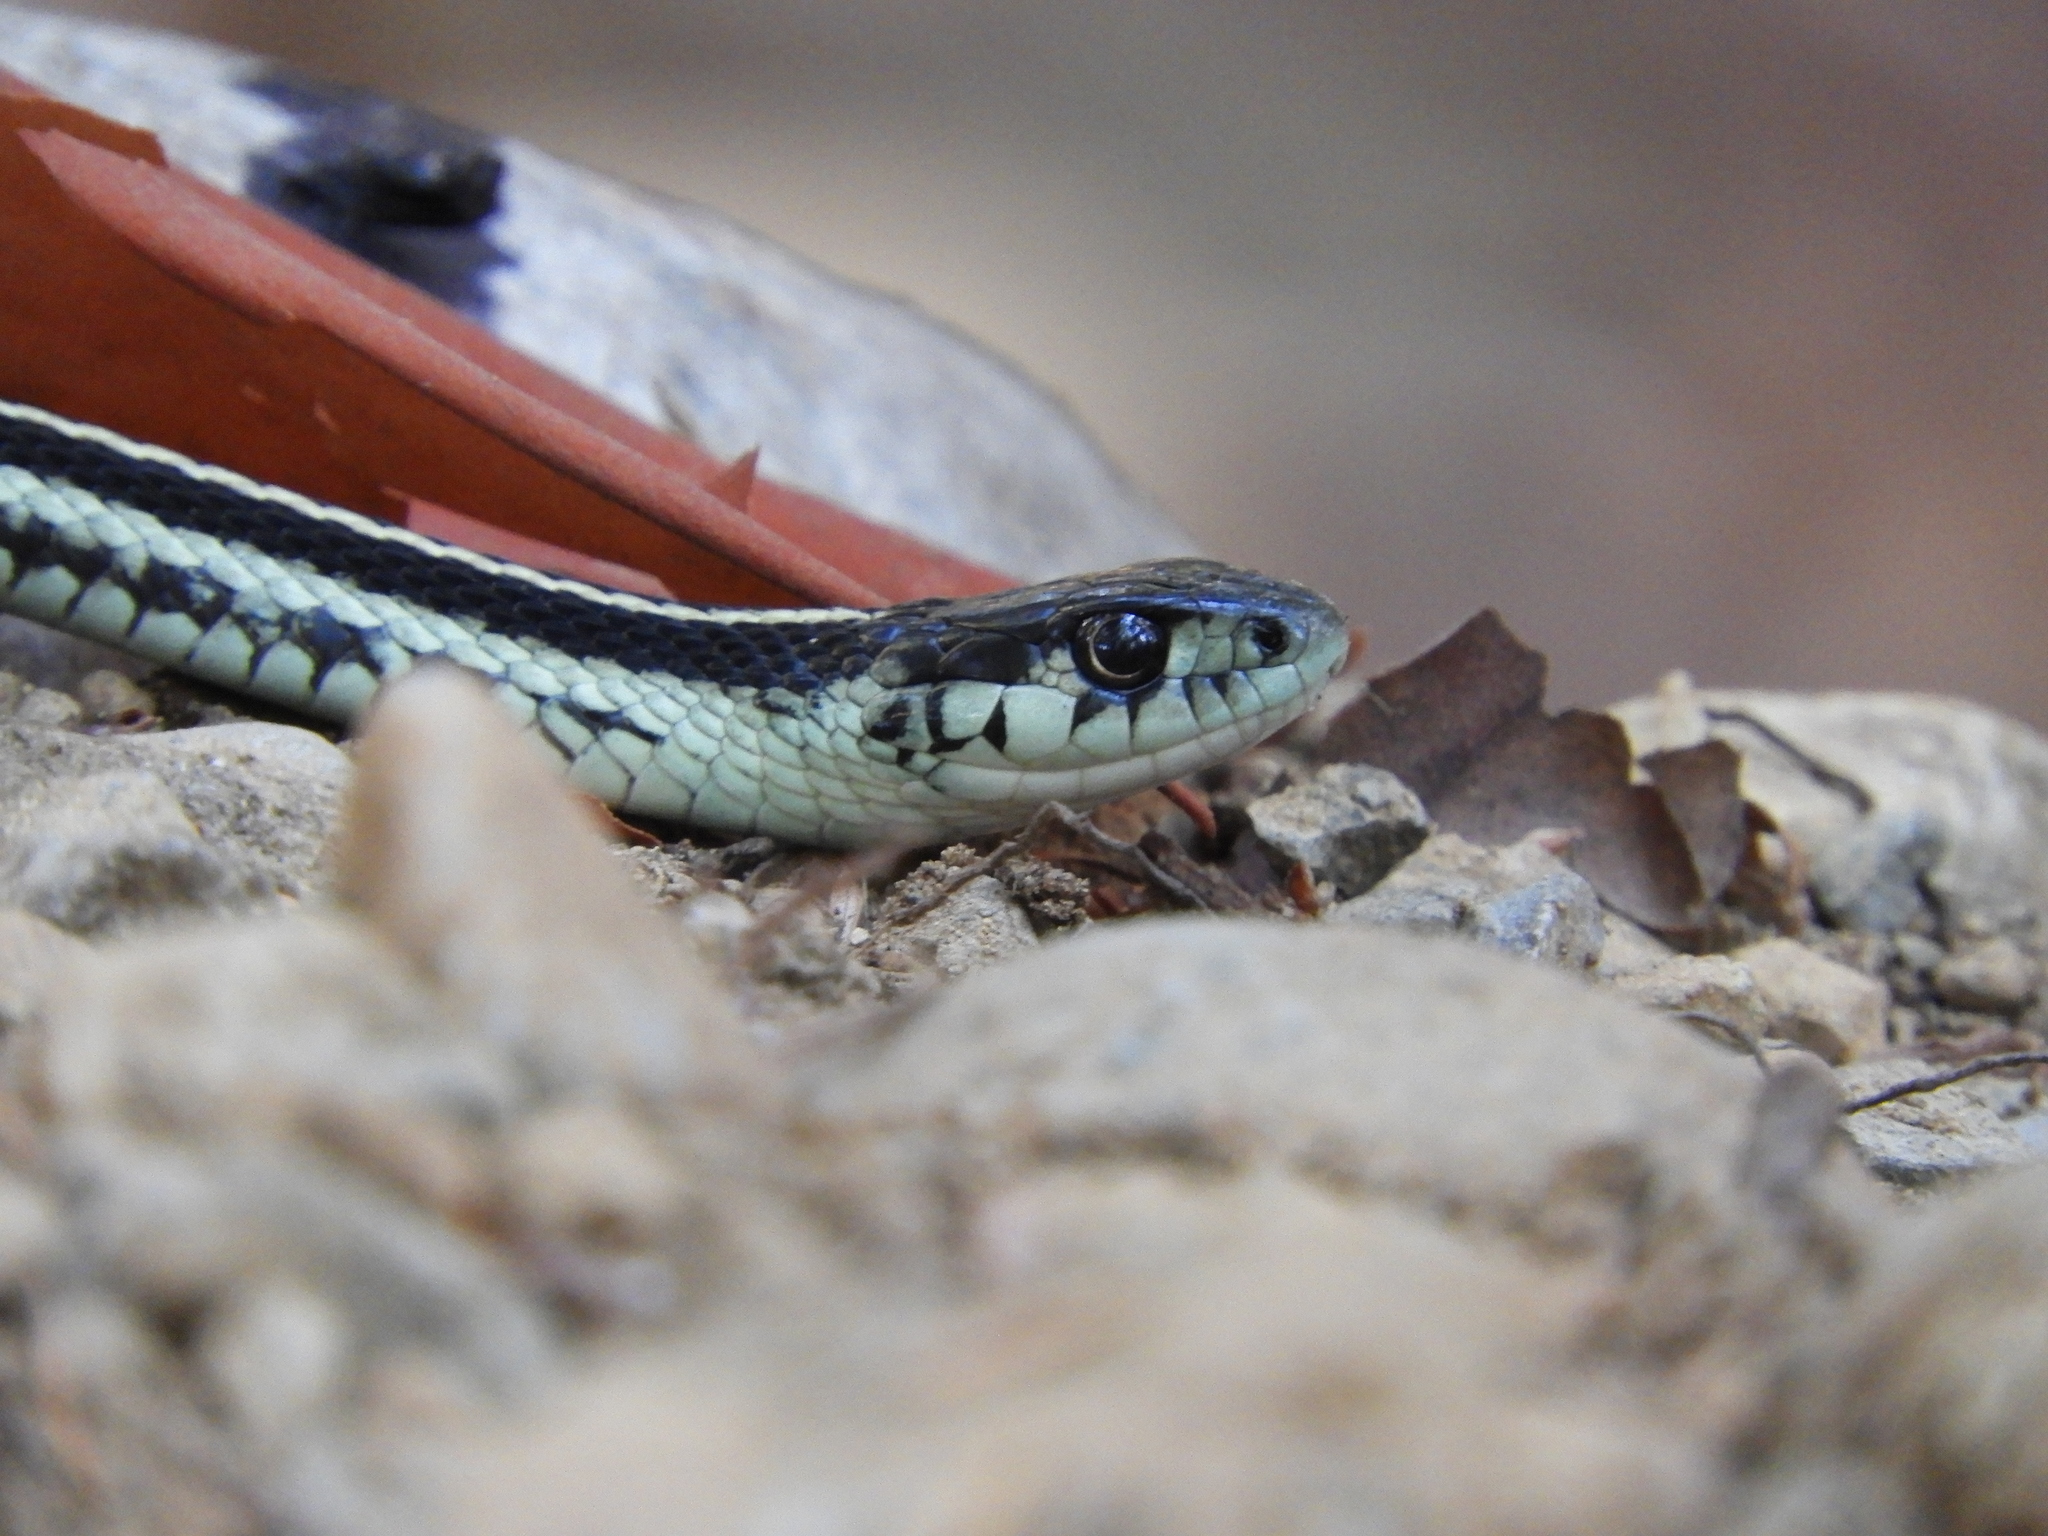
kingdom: Animalia
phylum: Chordata
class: Squamata
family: Colubridae
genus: Thamnophis
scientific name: Thamnophis sirtalis
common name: Common garter snake
